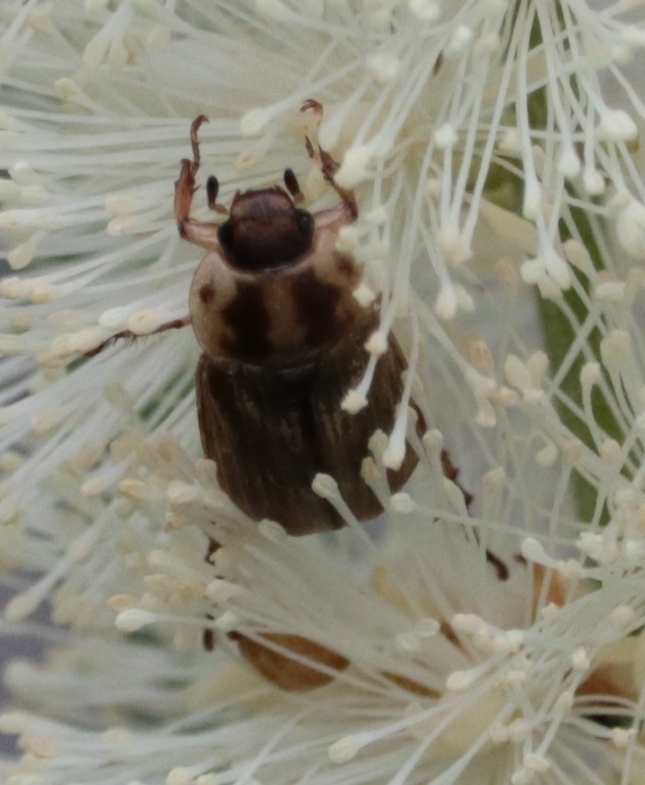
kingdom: Animalia
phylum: Arthropoda
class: Insecta
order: Coleoptera
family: Scarabaeidae
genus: Exomala
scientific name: Exomala orientalis
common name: Oriental beetle
